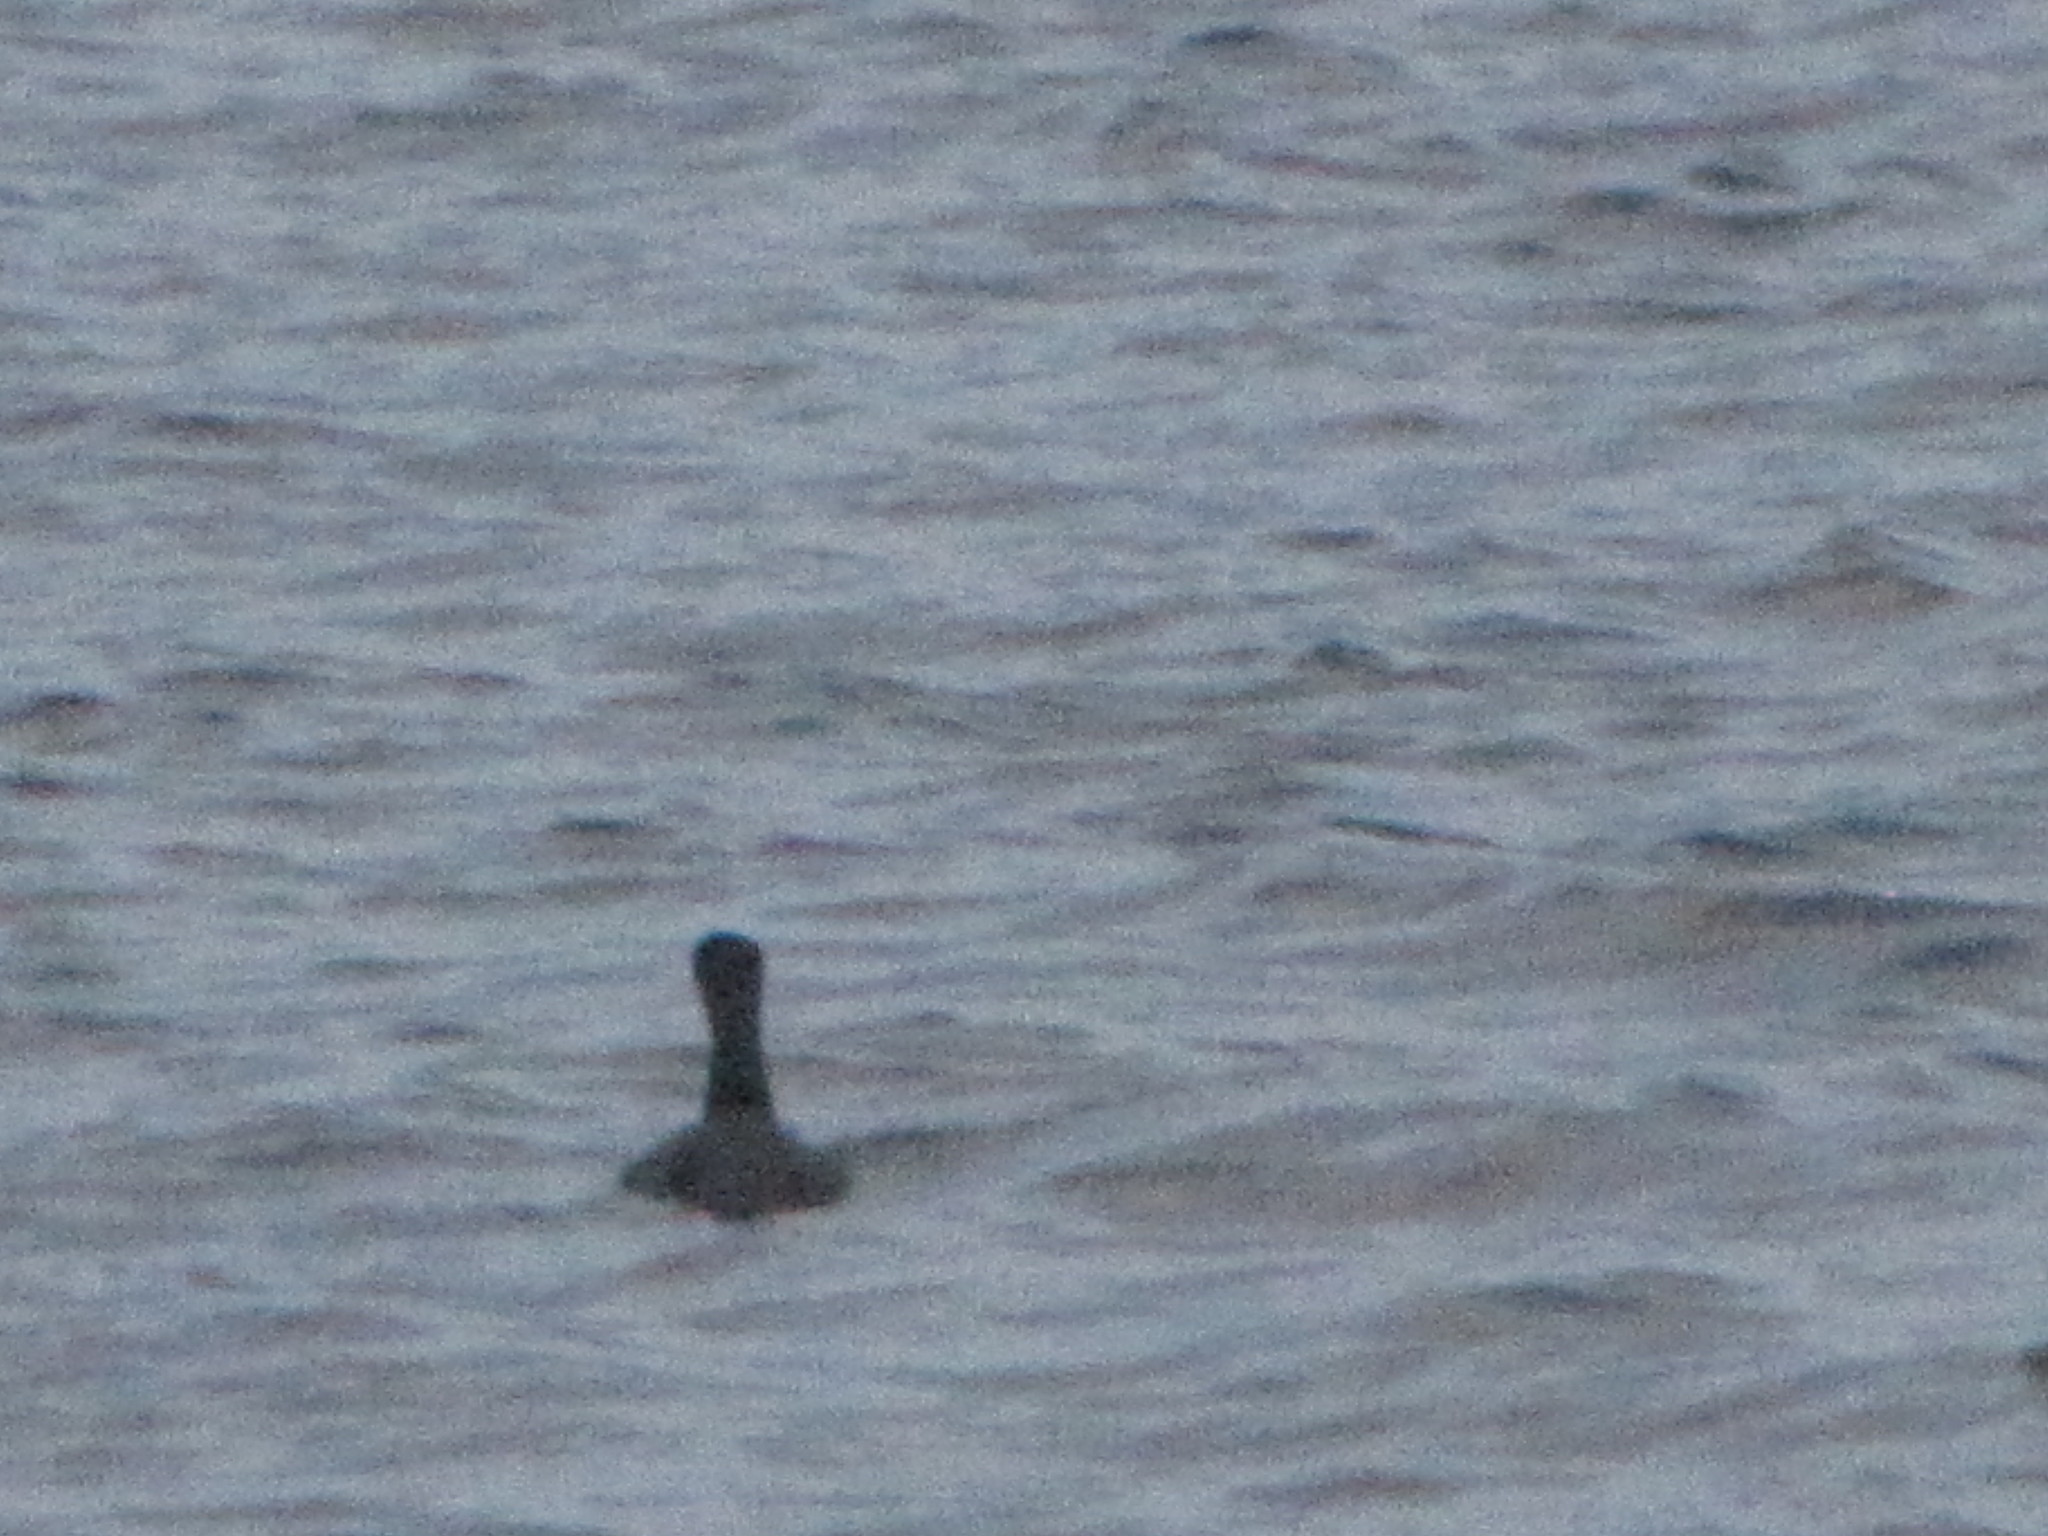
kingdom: Animalia
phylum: Chordata
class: Aves
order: Suliformes
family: Phalacrocoracidae
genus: Phalacrocorax
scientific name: Phalacrocorax auritus
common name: Double-crested cormorant
